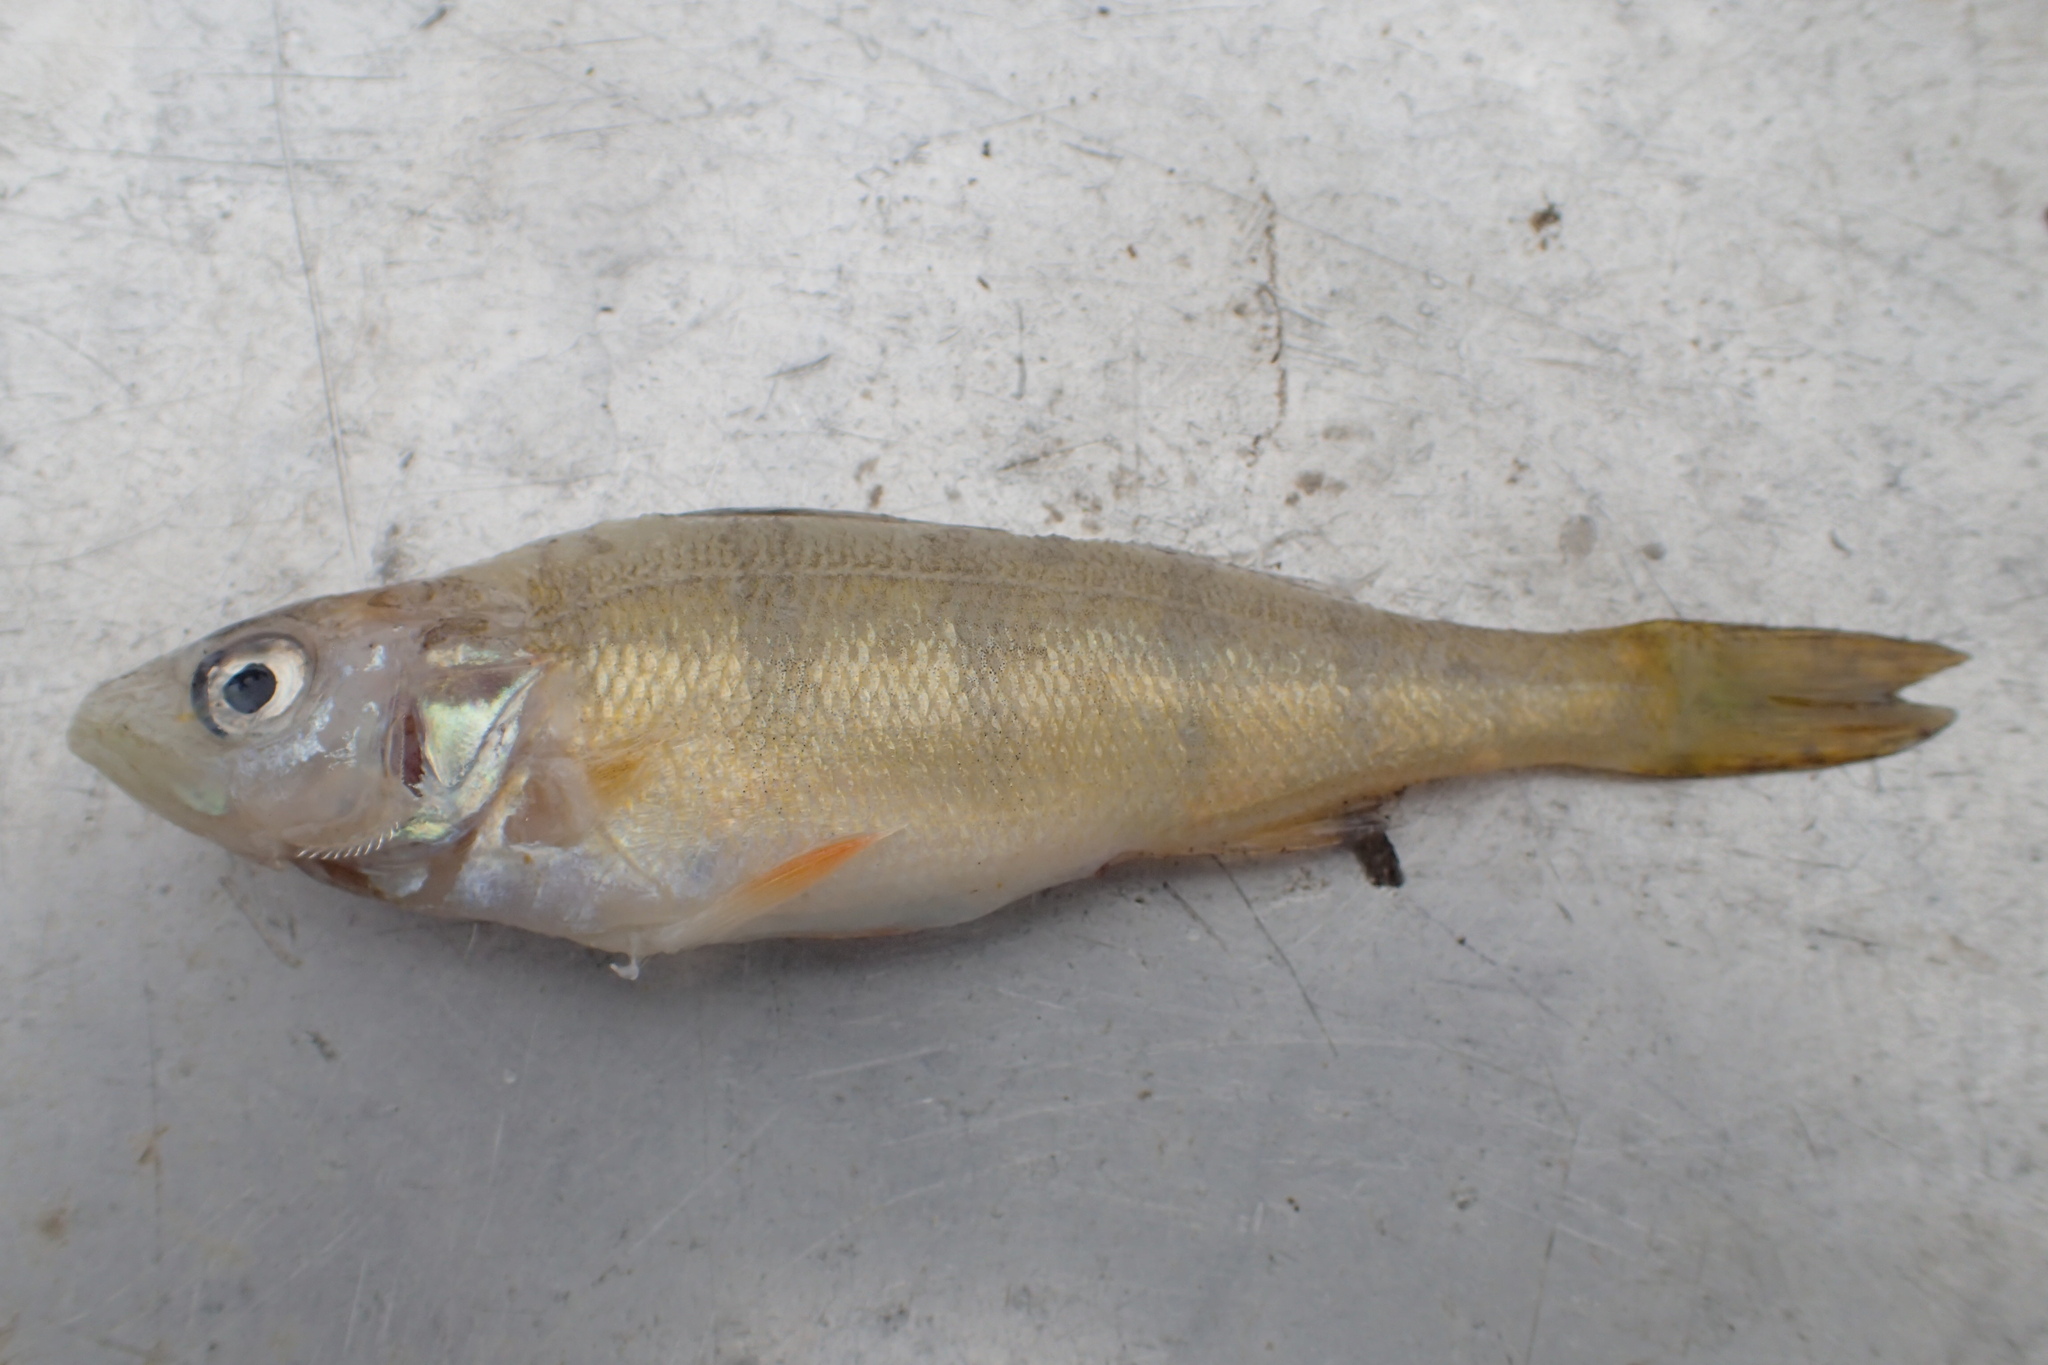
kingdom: Animalia
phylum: Chordata
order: Perciformes
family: Percidae
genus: Perca
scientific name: Perca flavescens
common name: Yellow perch
